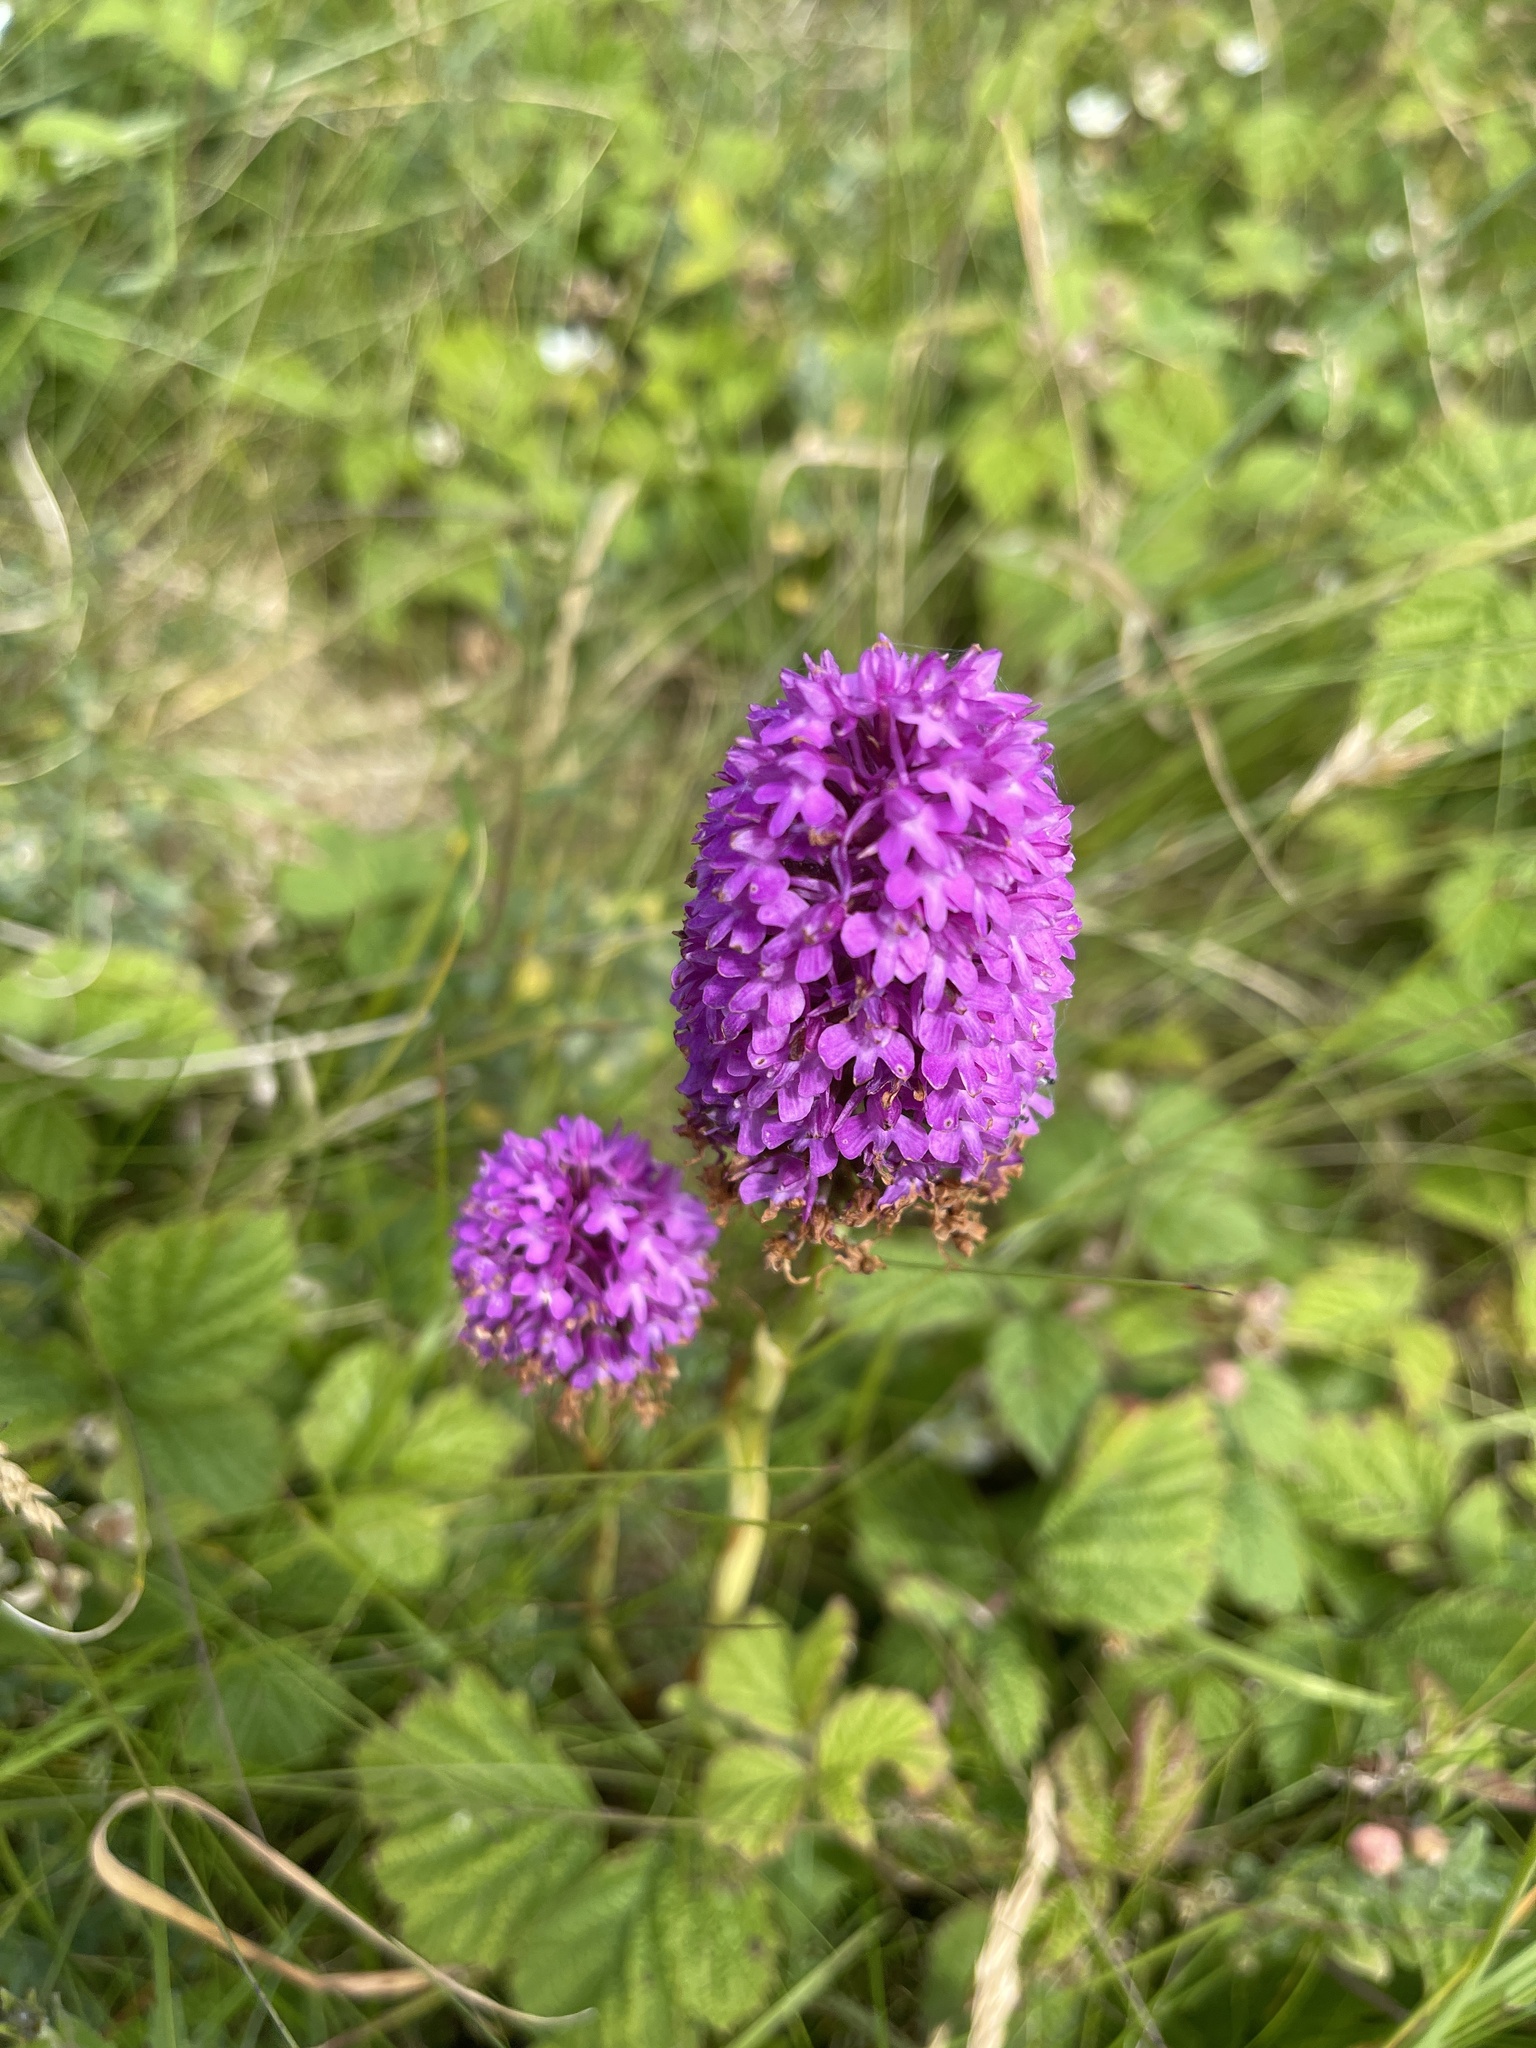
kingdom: Plantae
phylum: Tracheophyta
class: Liliopsida
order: Asparagales
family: Orchidaceae
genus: Anacamptis
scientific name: Anacamptis pyramidalis
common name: Pyramidal orchid
